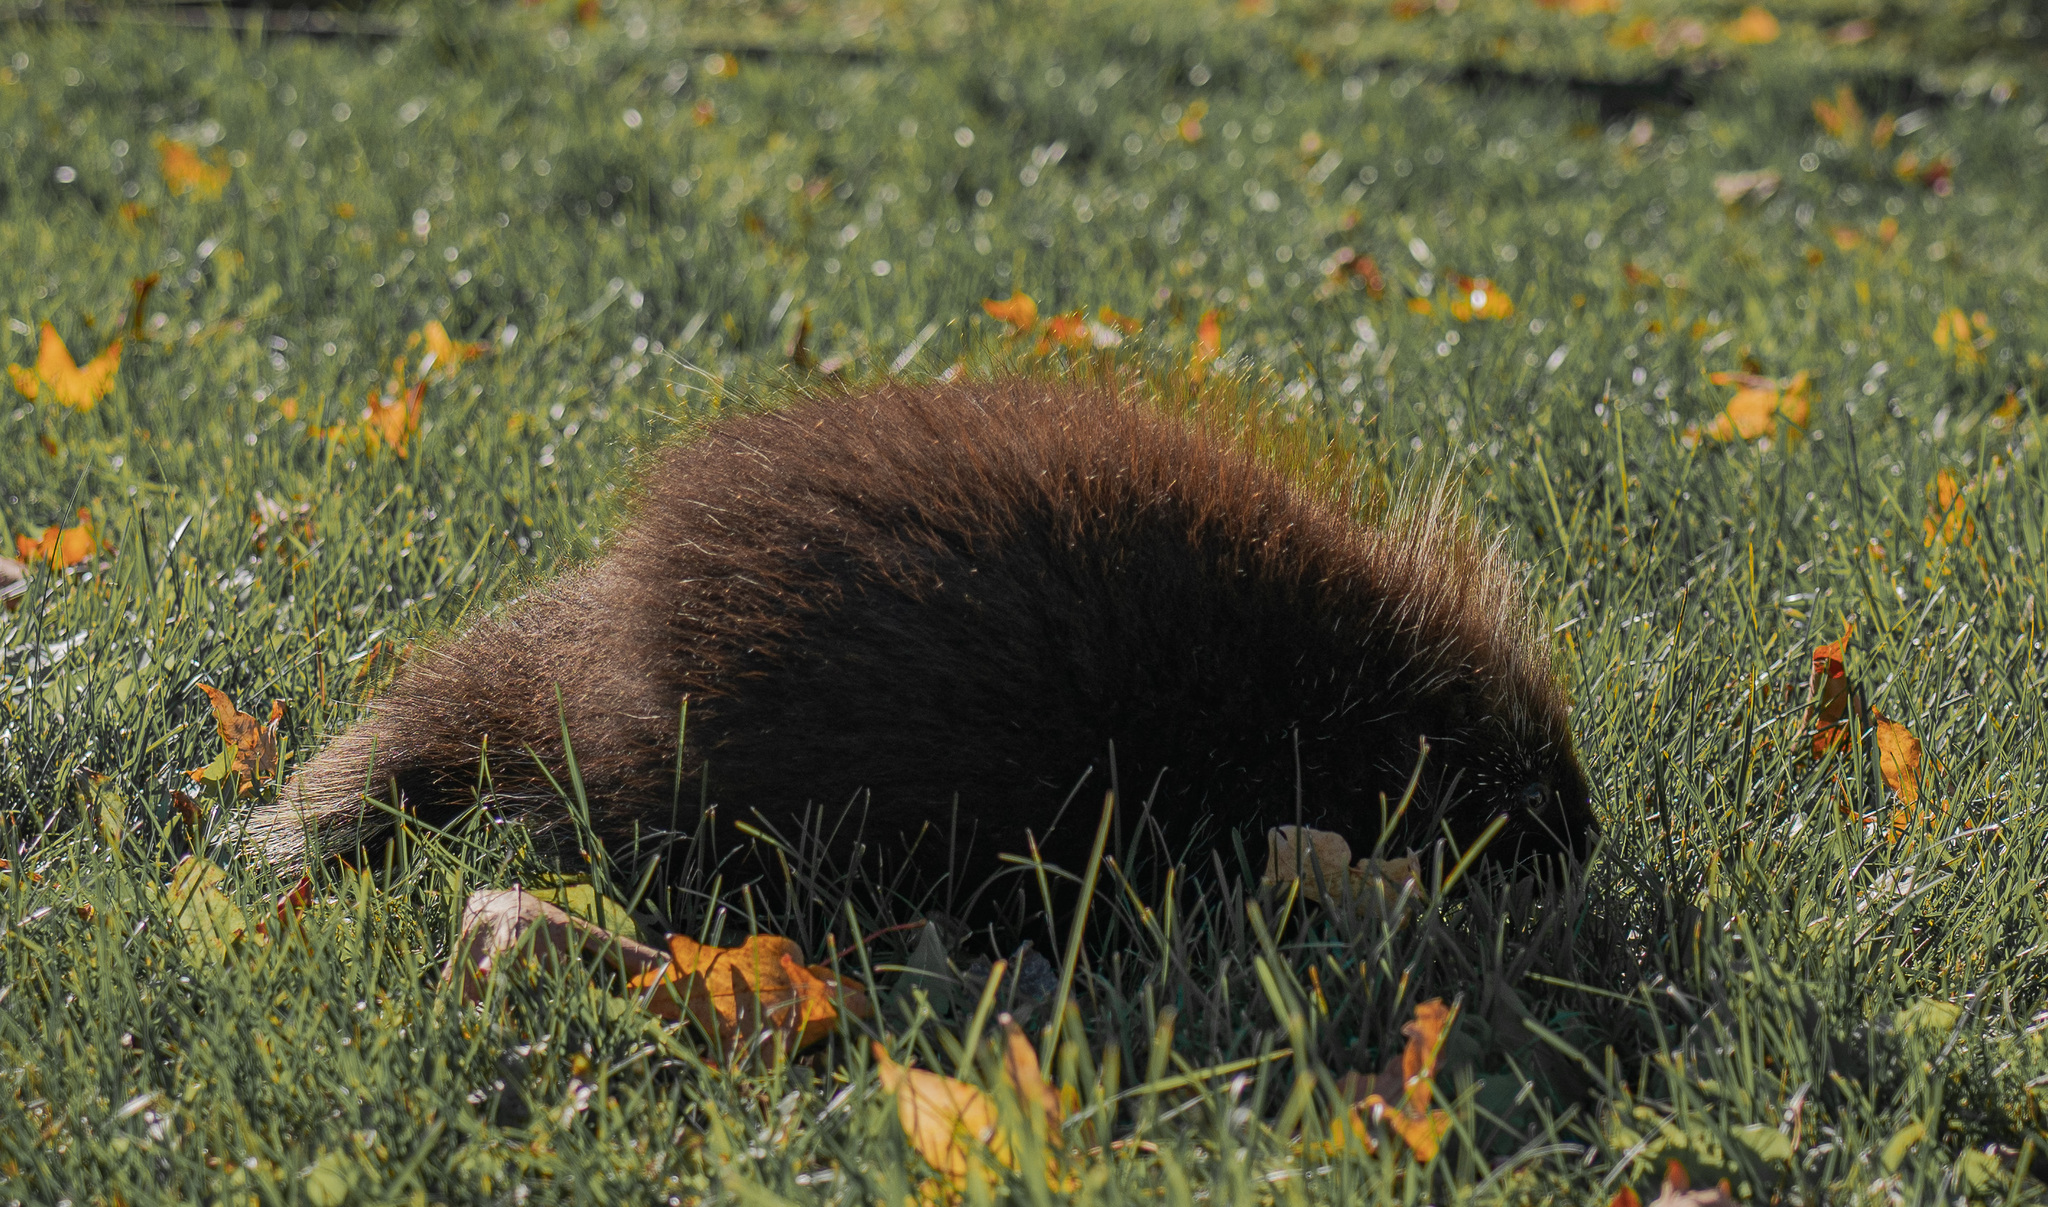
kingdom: Animalia
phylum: Chordata
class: Mammalia
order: Rodentia
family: Erethizontidae
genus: Erethizon
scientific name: Erethizon dorsatus
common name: North american porcupine
